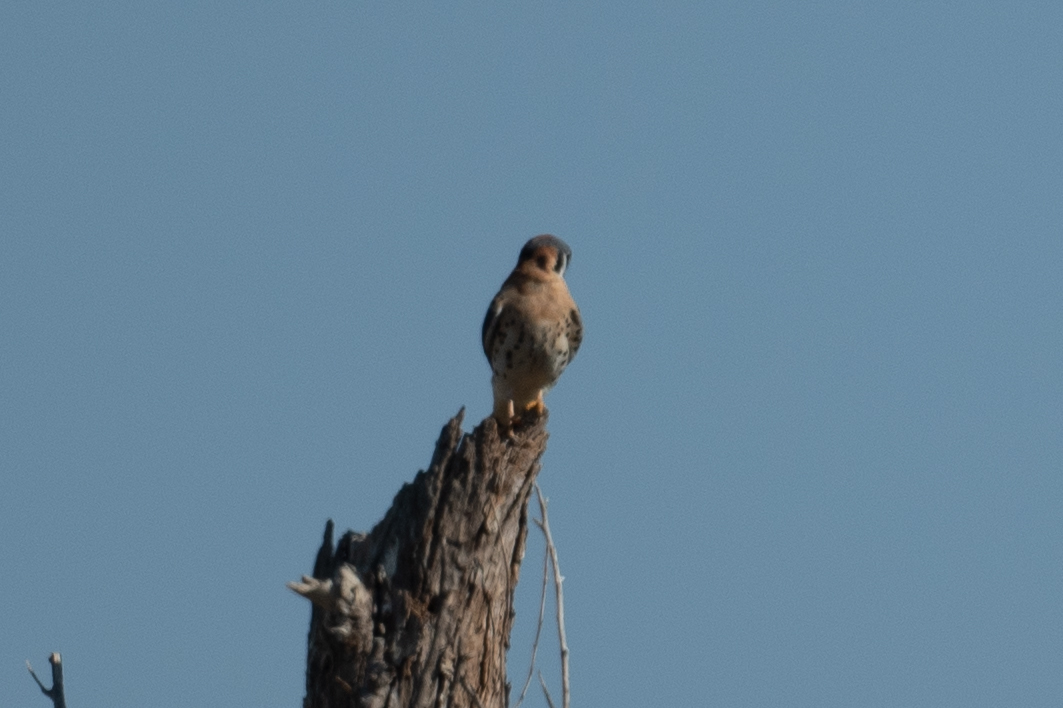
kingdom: Animalia
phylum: Chordata
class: Aves
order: Falconiformes
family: Falconidae
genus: Falco
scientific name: Falco sparverius
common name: American kestrel
